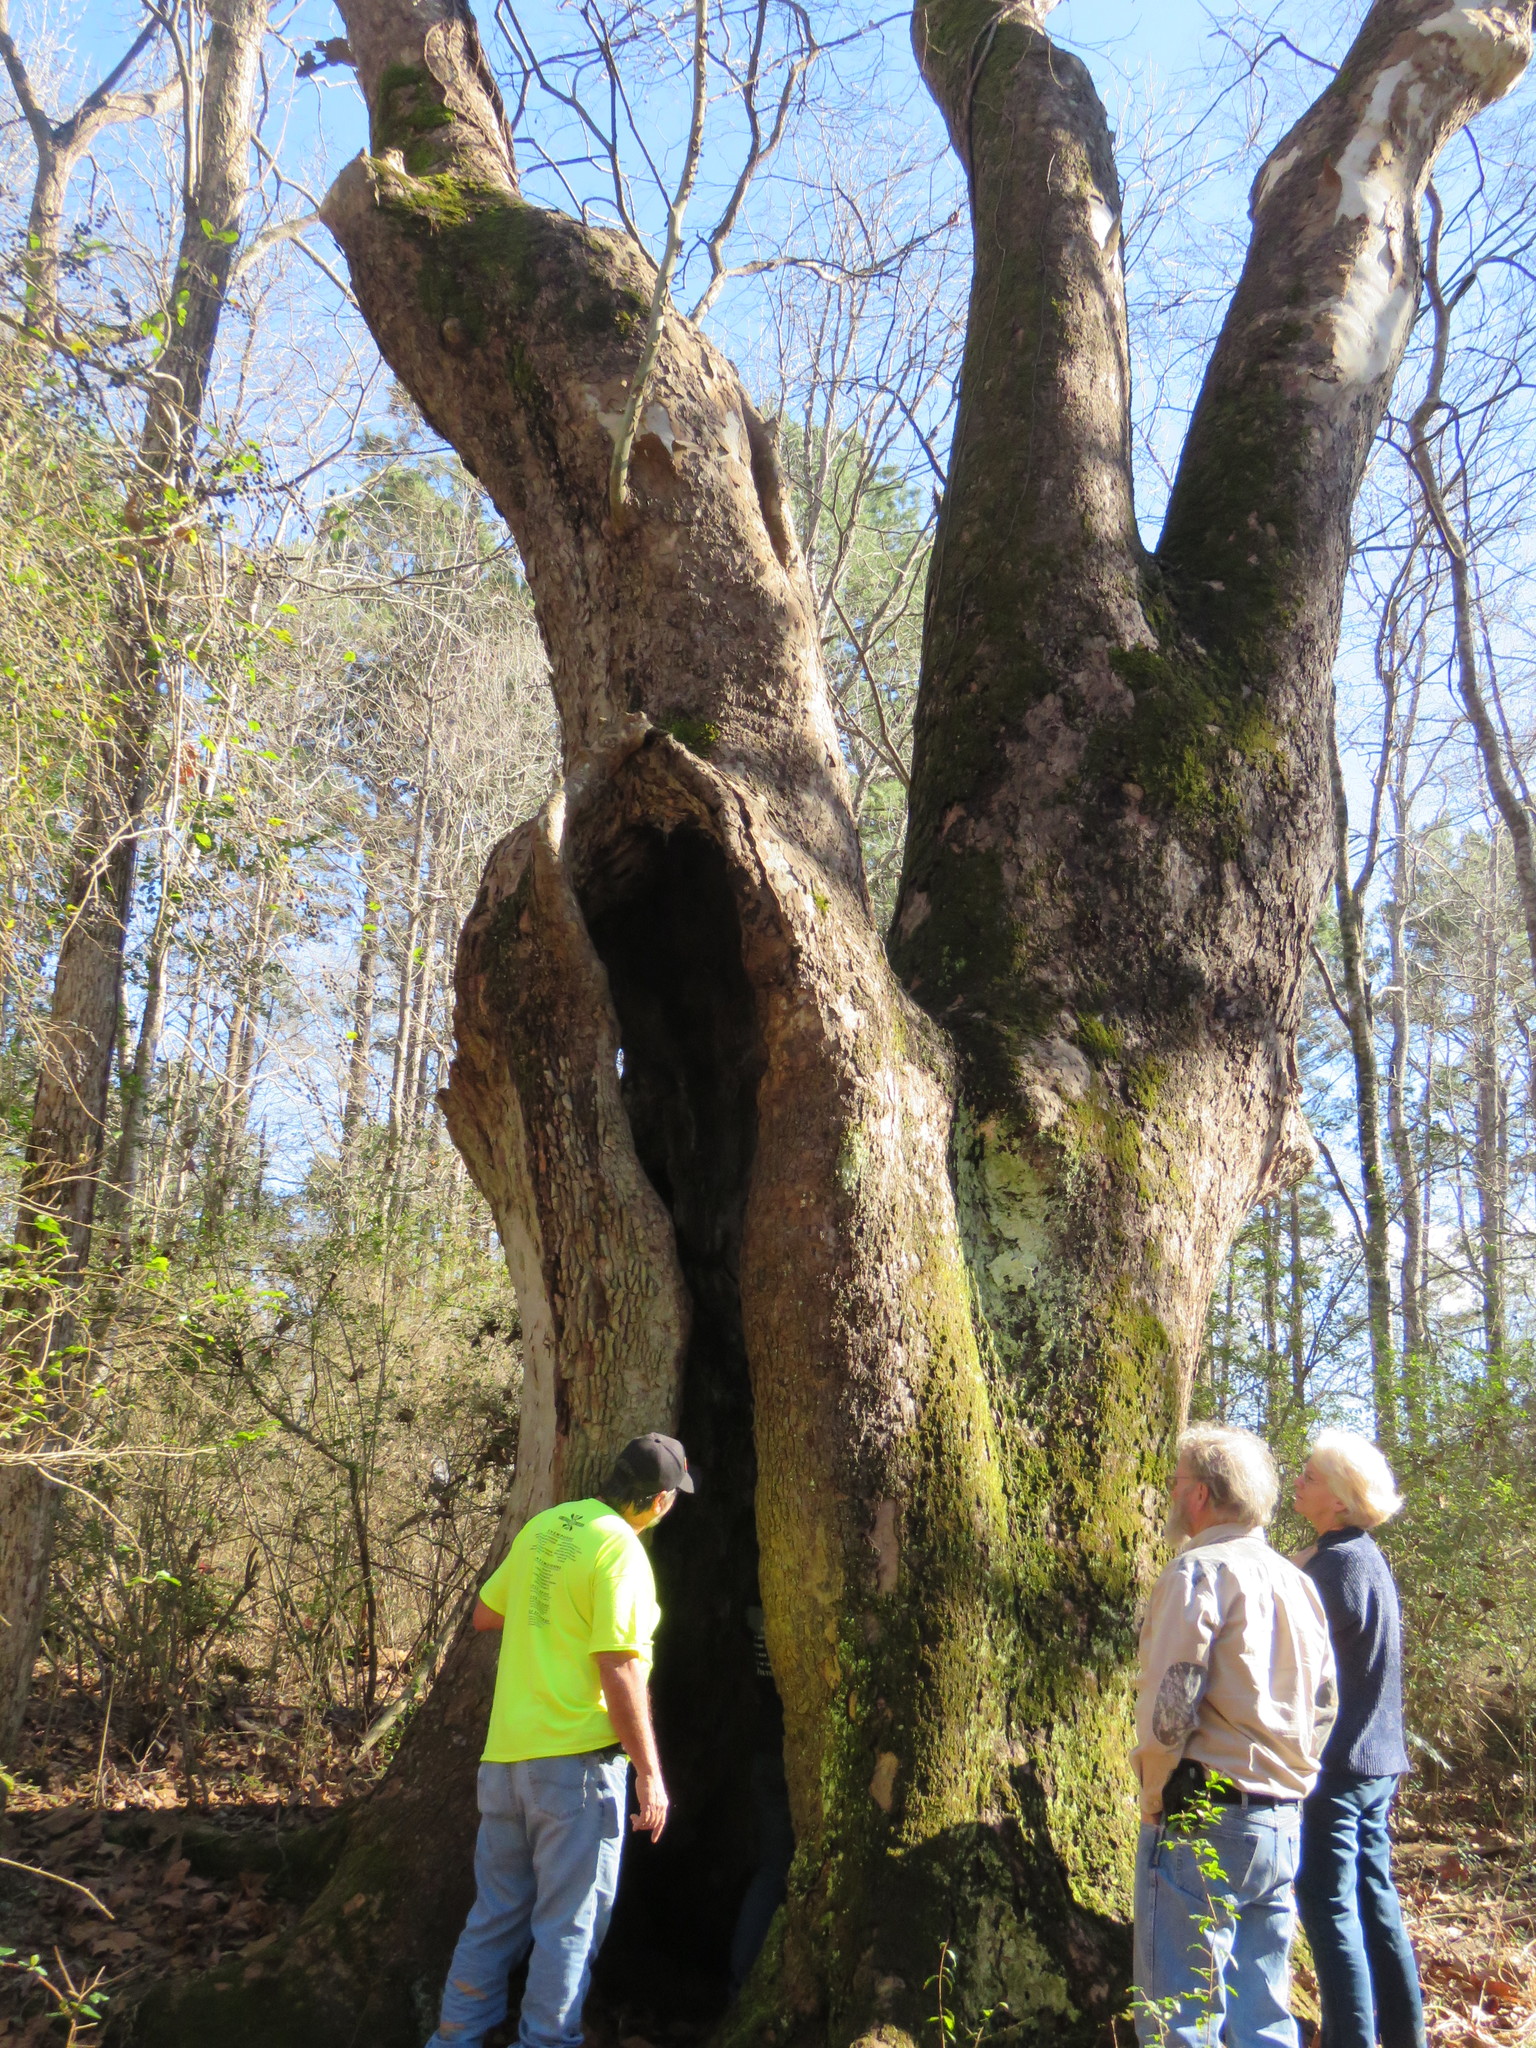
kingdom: Plantae
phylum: Tracheophyta
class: Magnoliopsida
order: Proteales
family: Platanaceae
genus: Platanus
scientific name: Platanus occidentalis
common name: American sycamore
